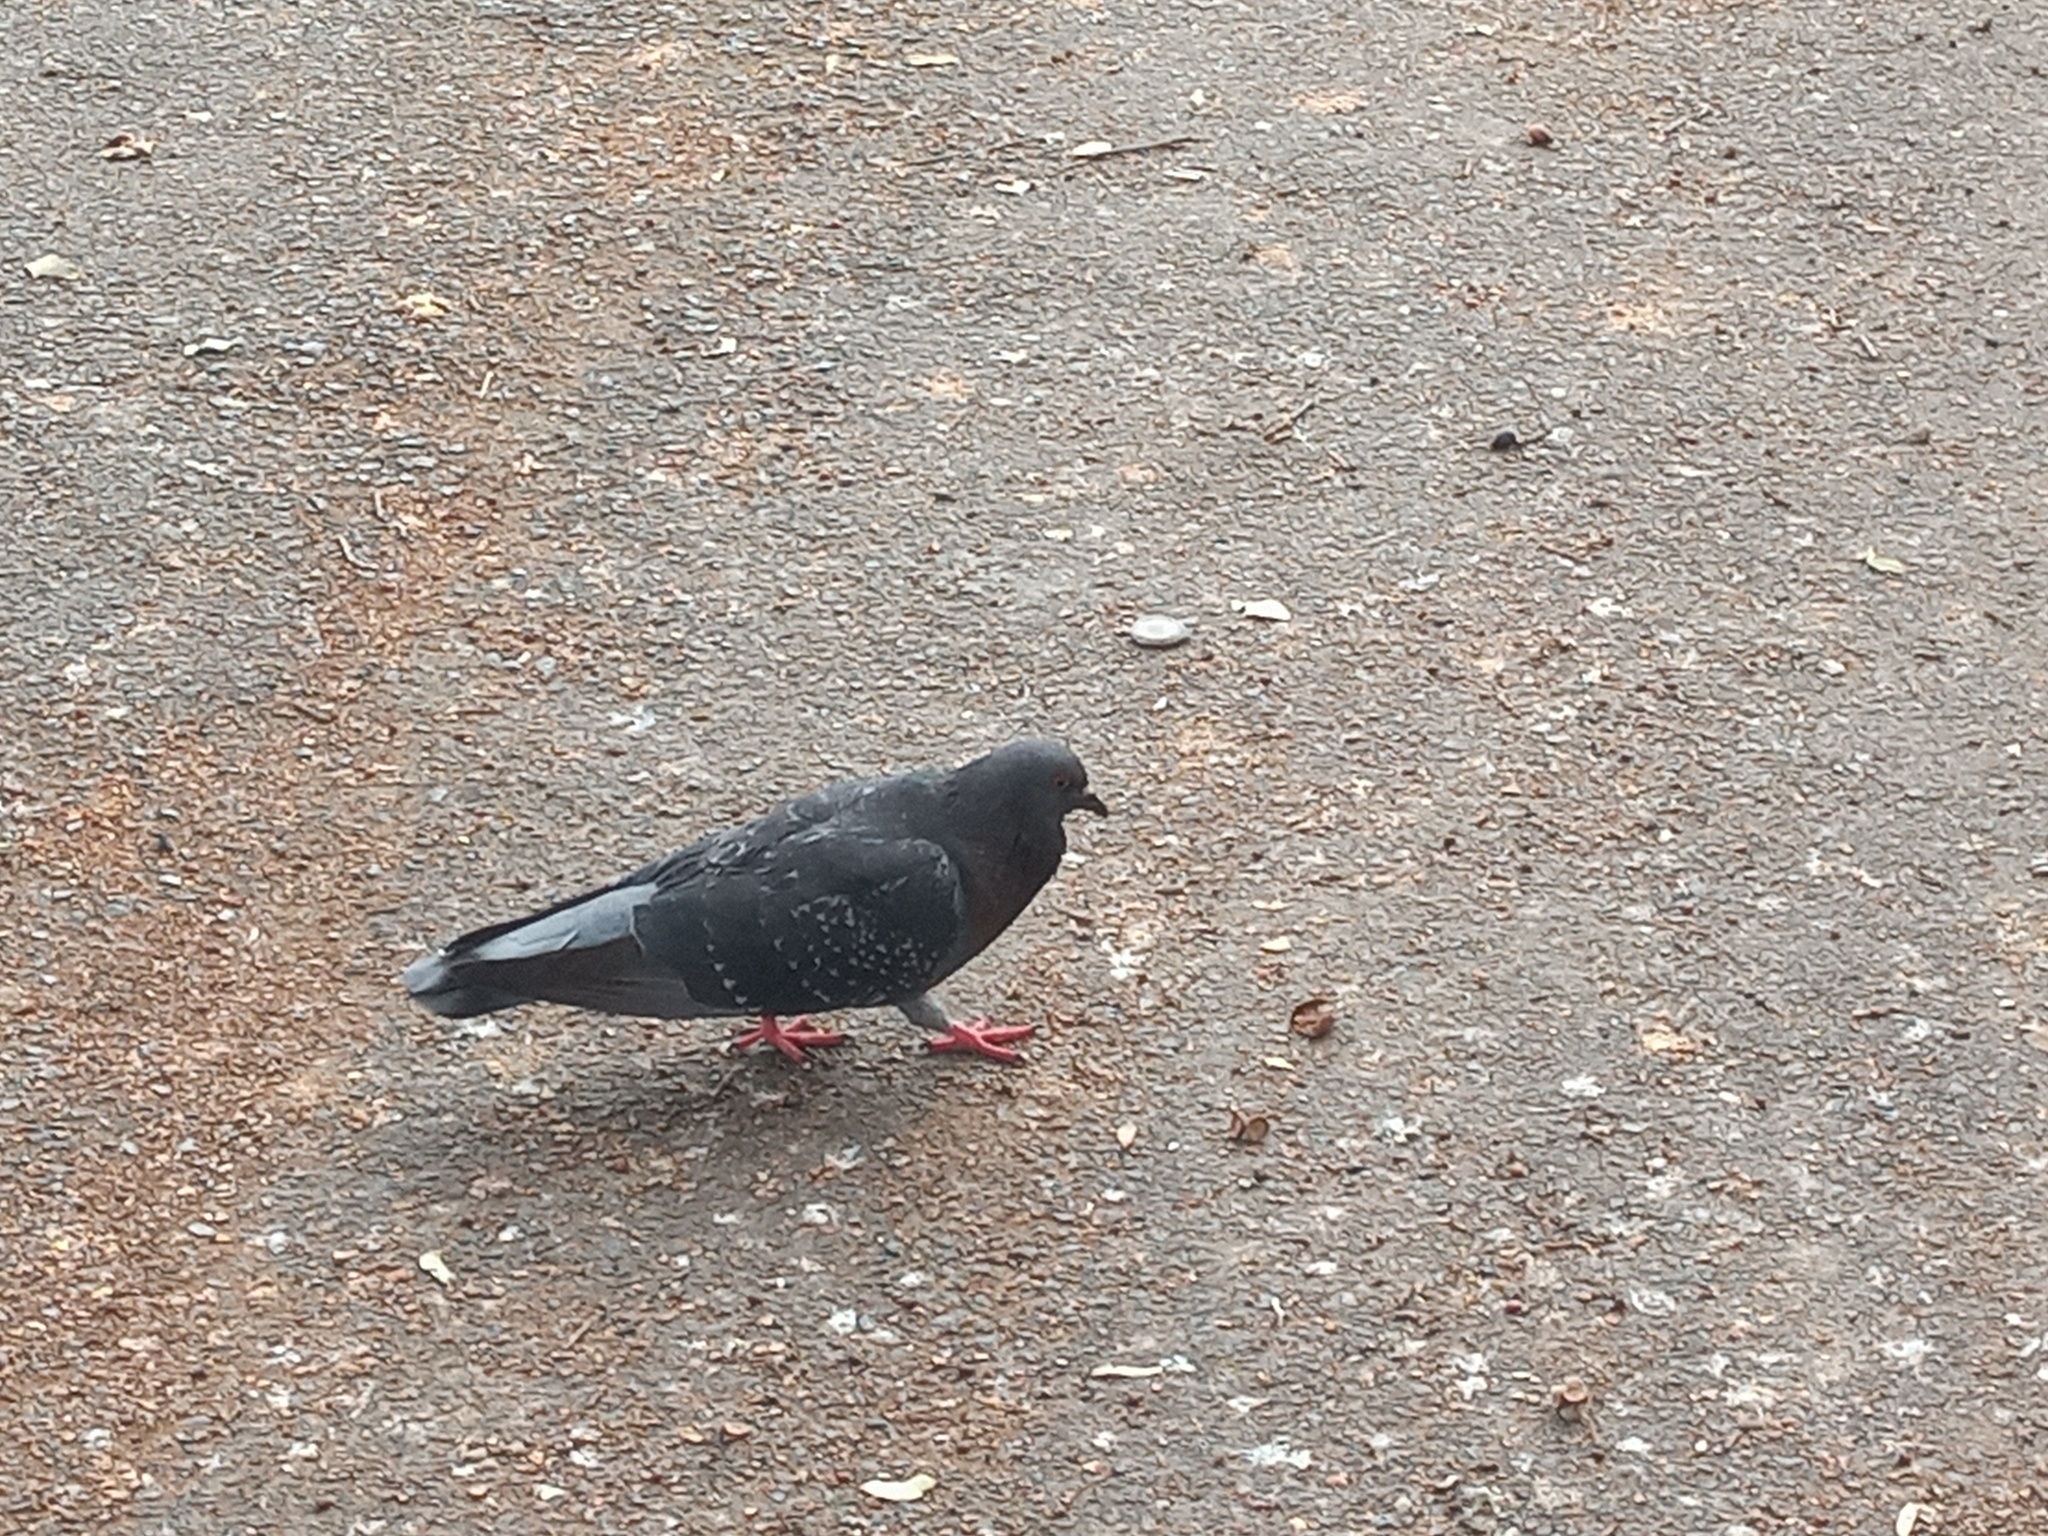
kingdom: Animalia
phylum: Chordata
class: Aves
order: Columbiformes
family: Columbidae
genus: Columba
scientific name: Columba livia
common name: Rock pigeon
